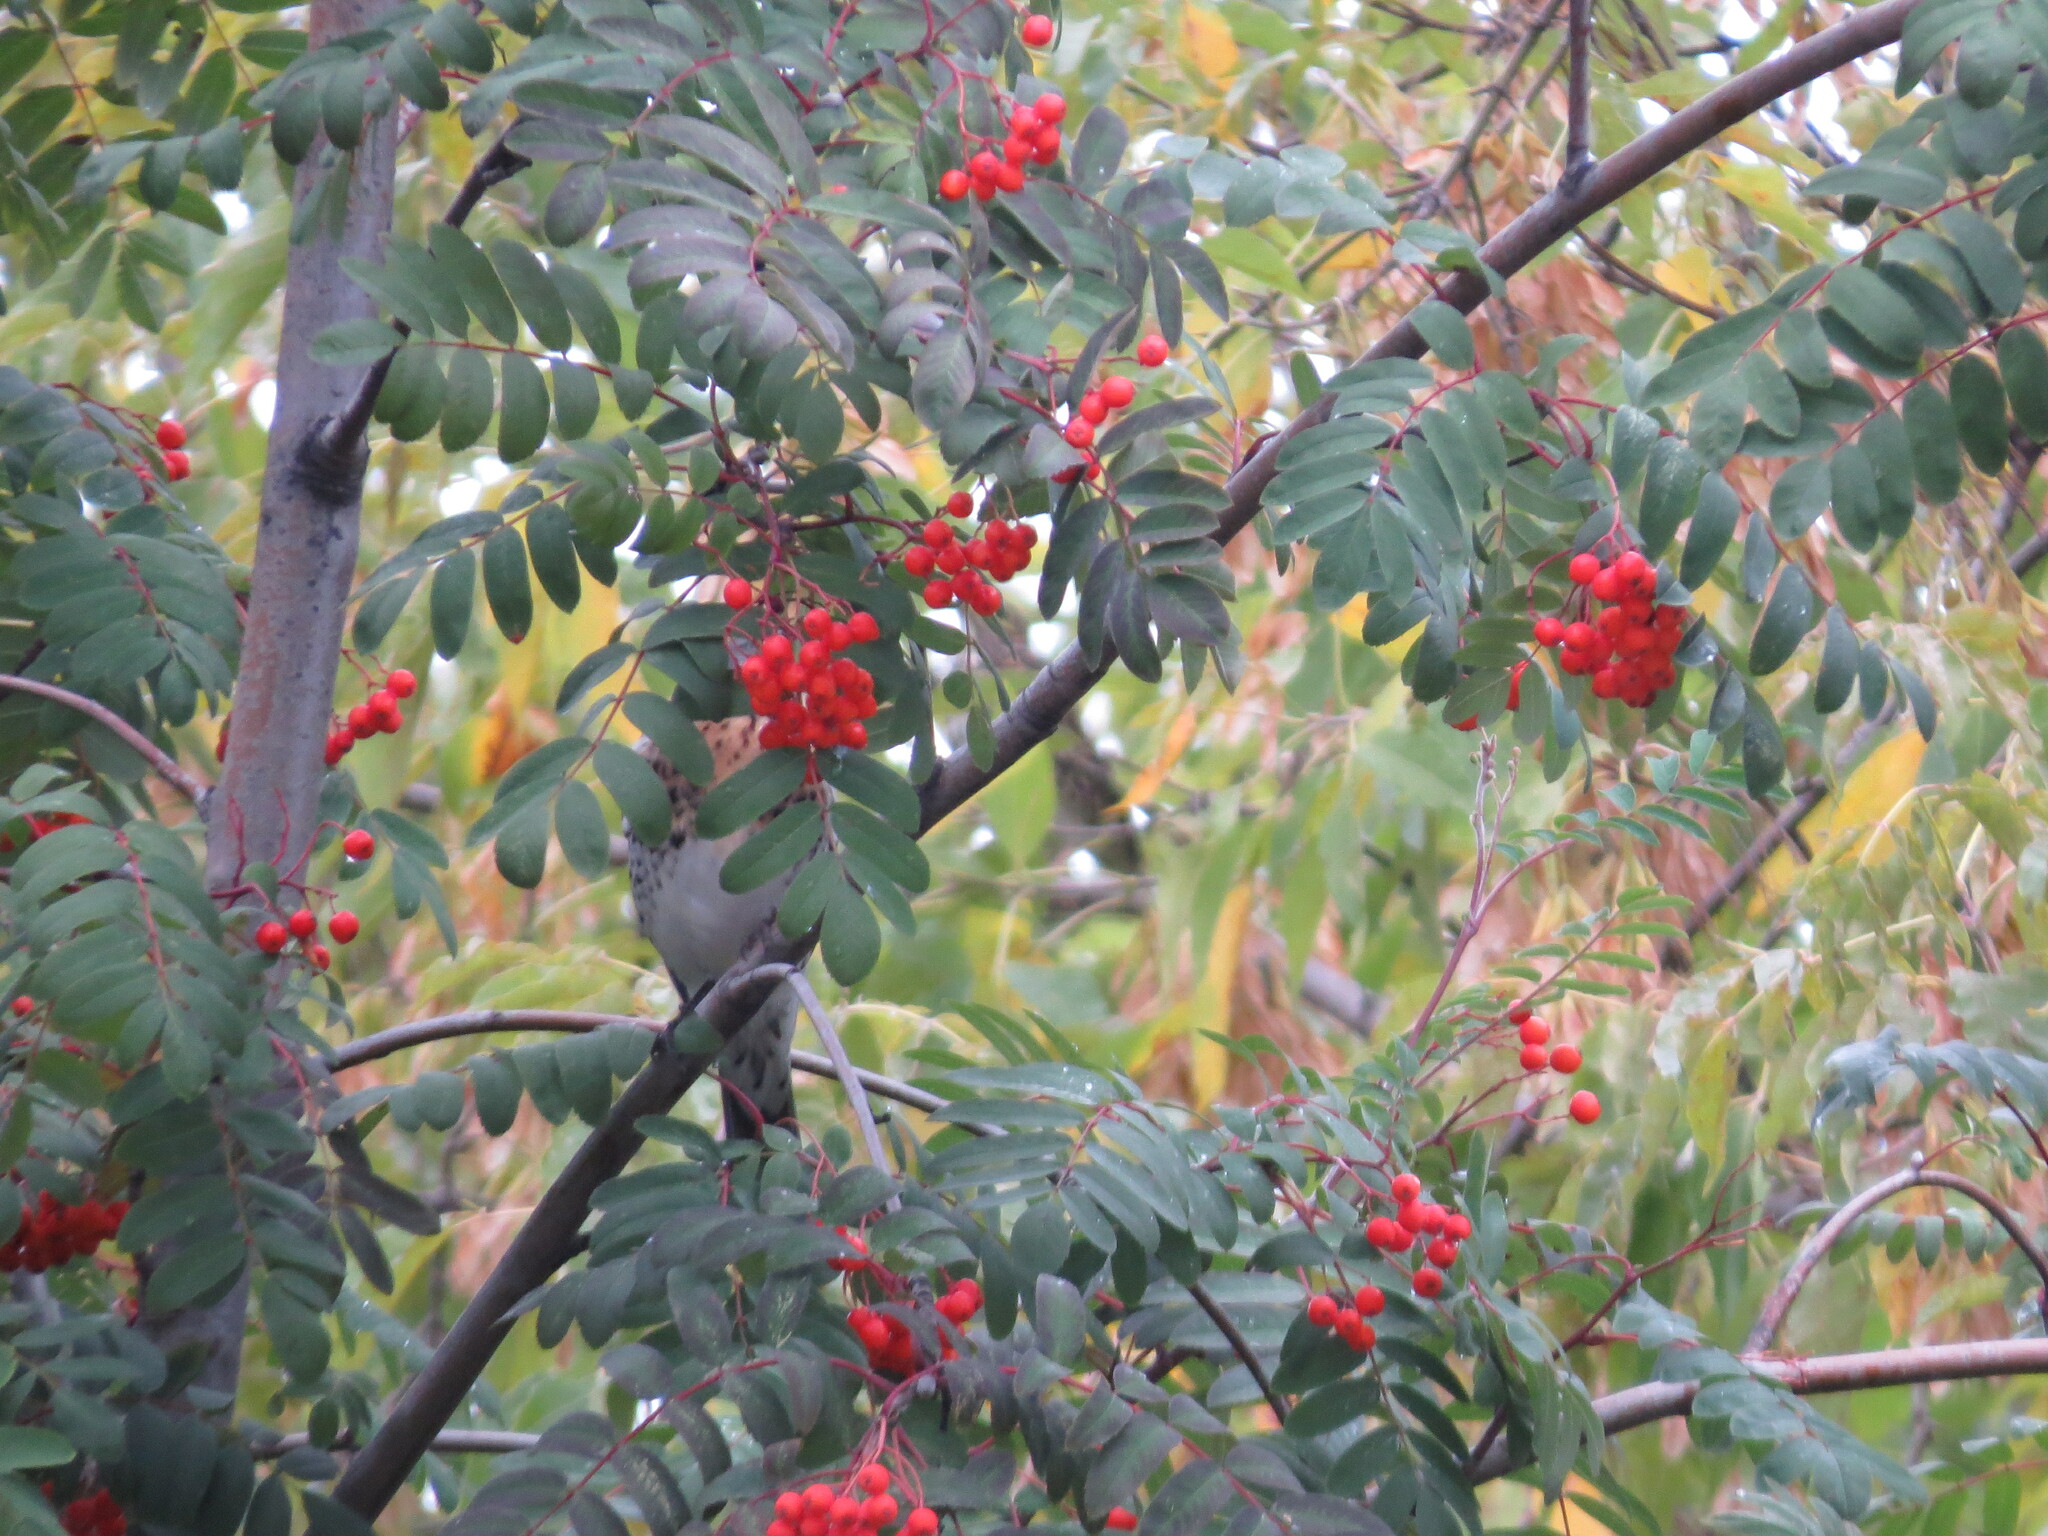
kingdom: Animalia
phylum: Chordata
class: Aves
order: Passeriformes
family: Turdidae
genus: Turdus
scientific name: Turdus pilaris
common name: Fieldfare
